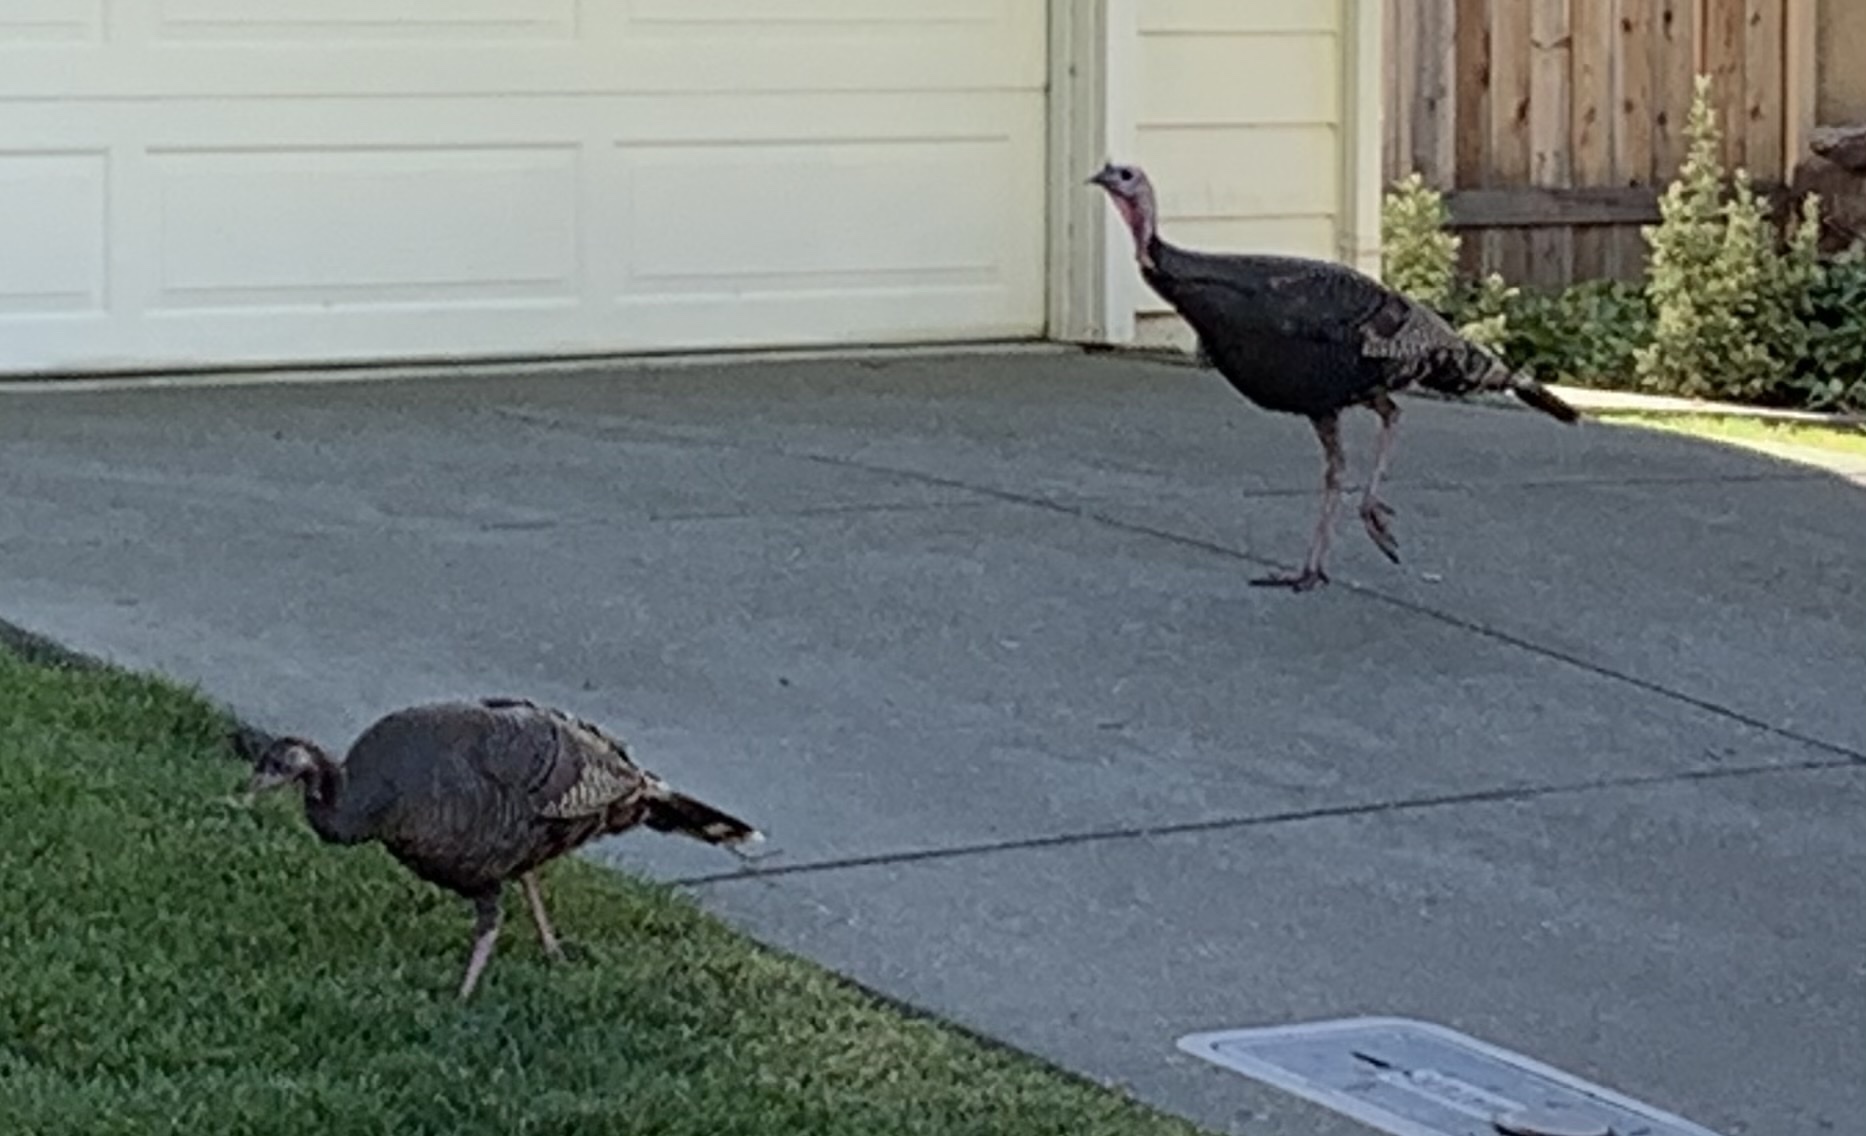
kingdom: Animalia
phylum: Chordata
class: Aves
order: Galliformes
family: Phasianidae
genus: Meleagris
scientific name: Meleagris gallopavo
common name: Wild turkey
